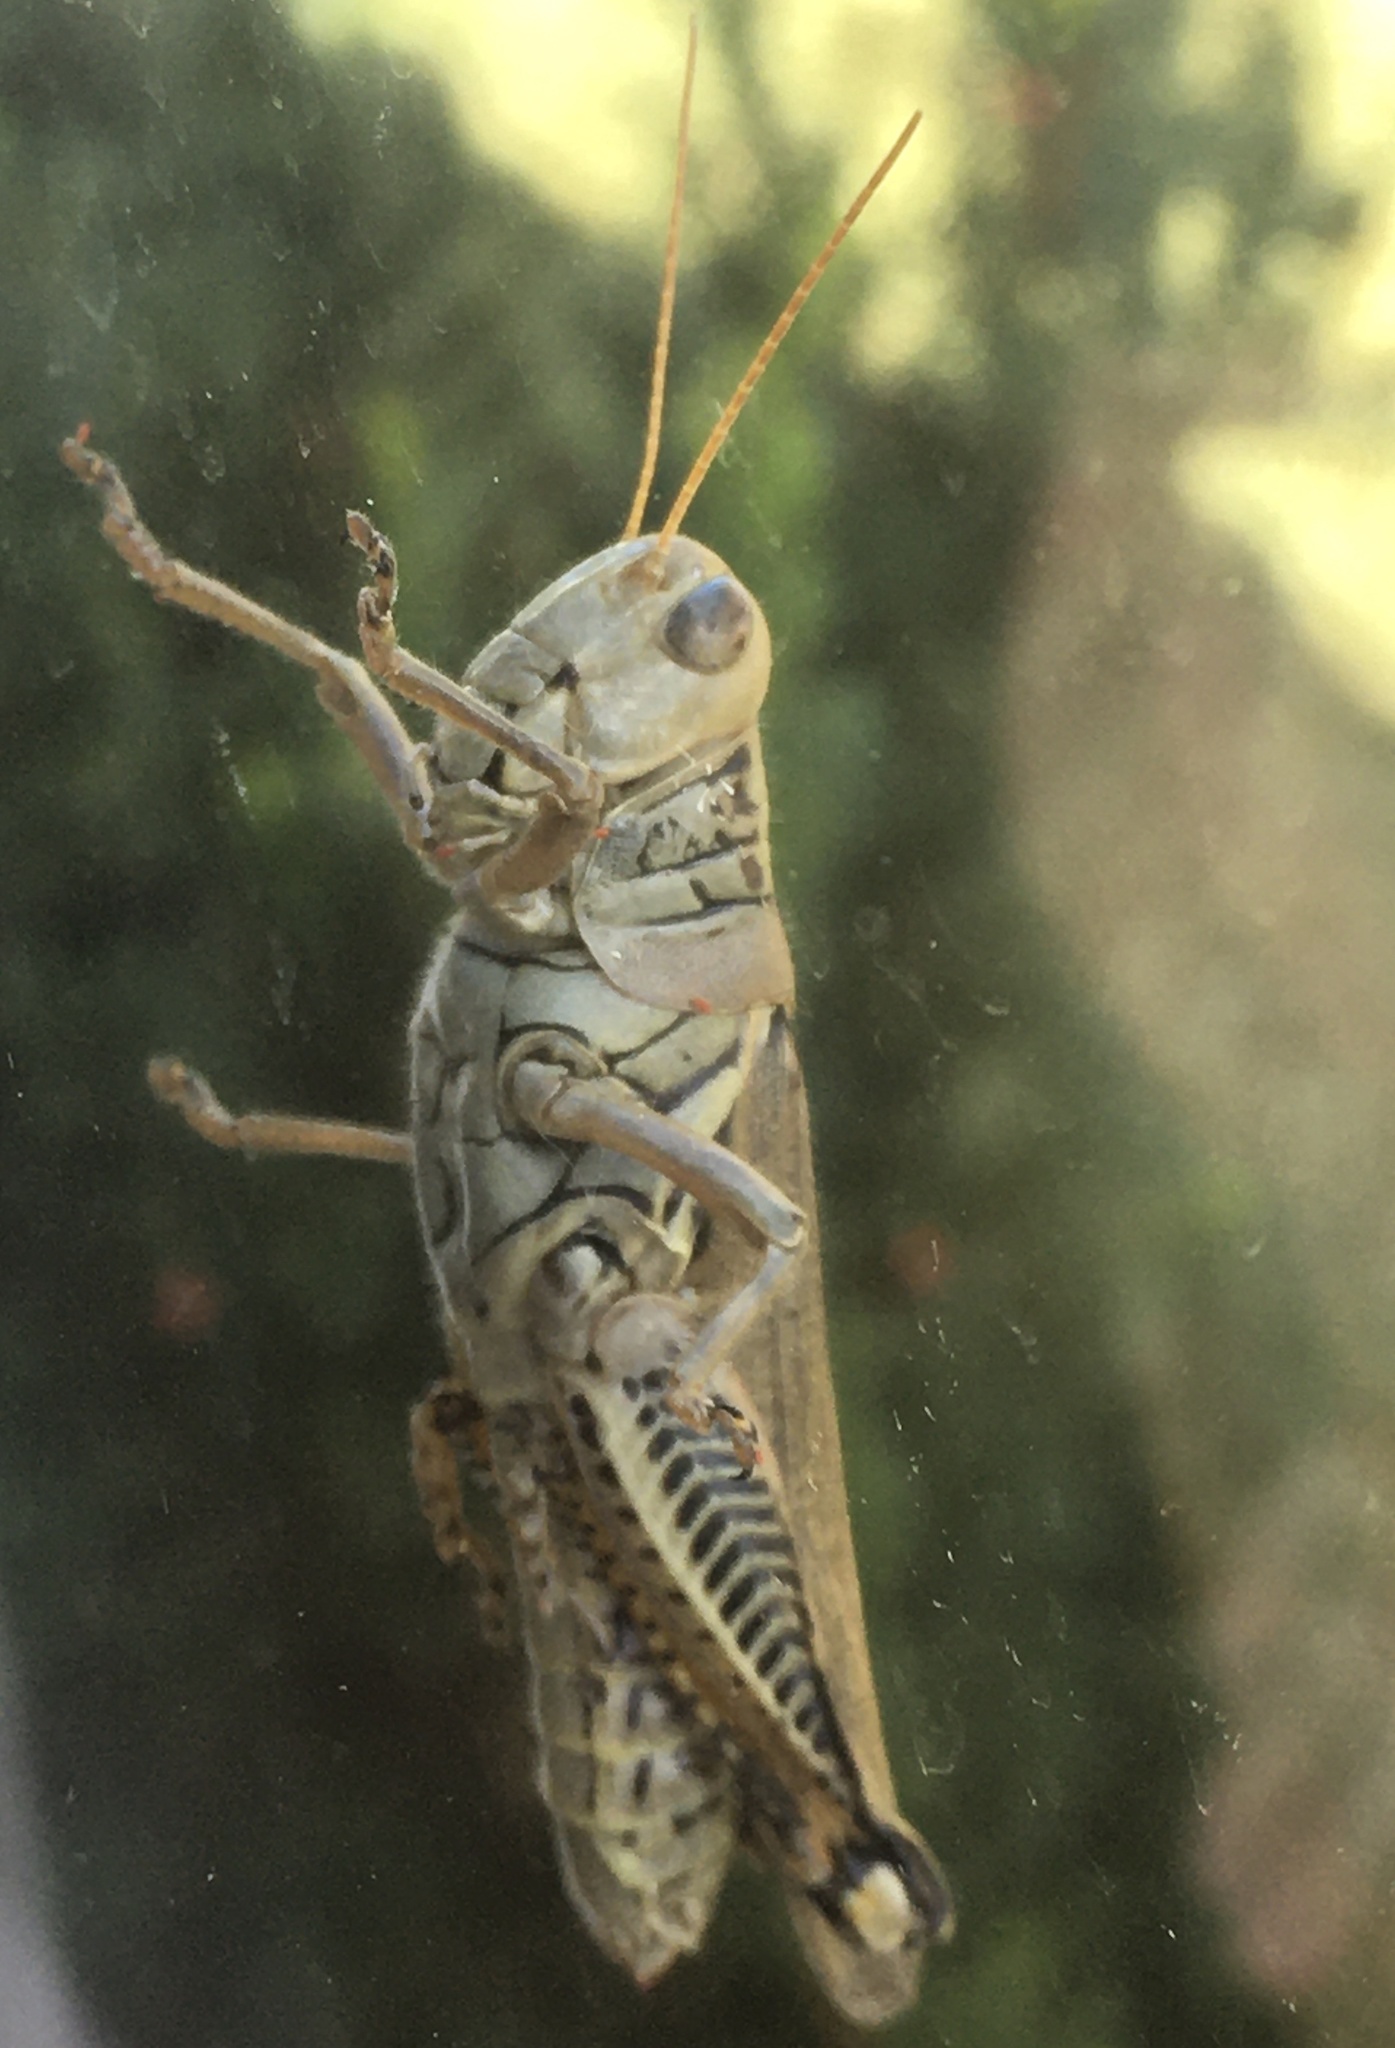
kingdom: Animalia
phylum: Arthropoda
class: Insecta
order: Orthoptera
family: Acrididae
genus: Melanoplus
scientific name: Melanoplus differentialis
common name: Differential grasshopper
